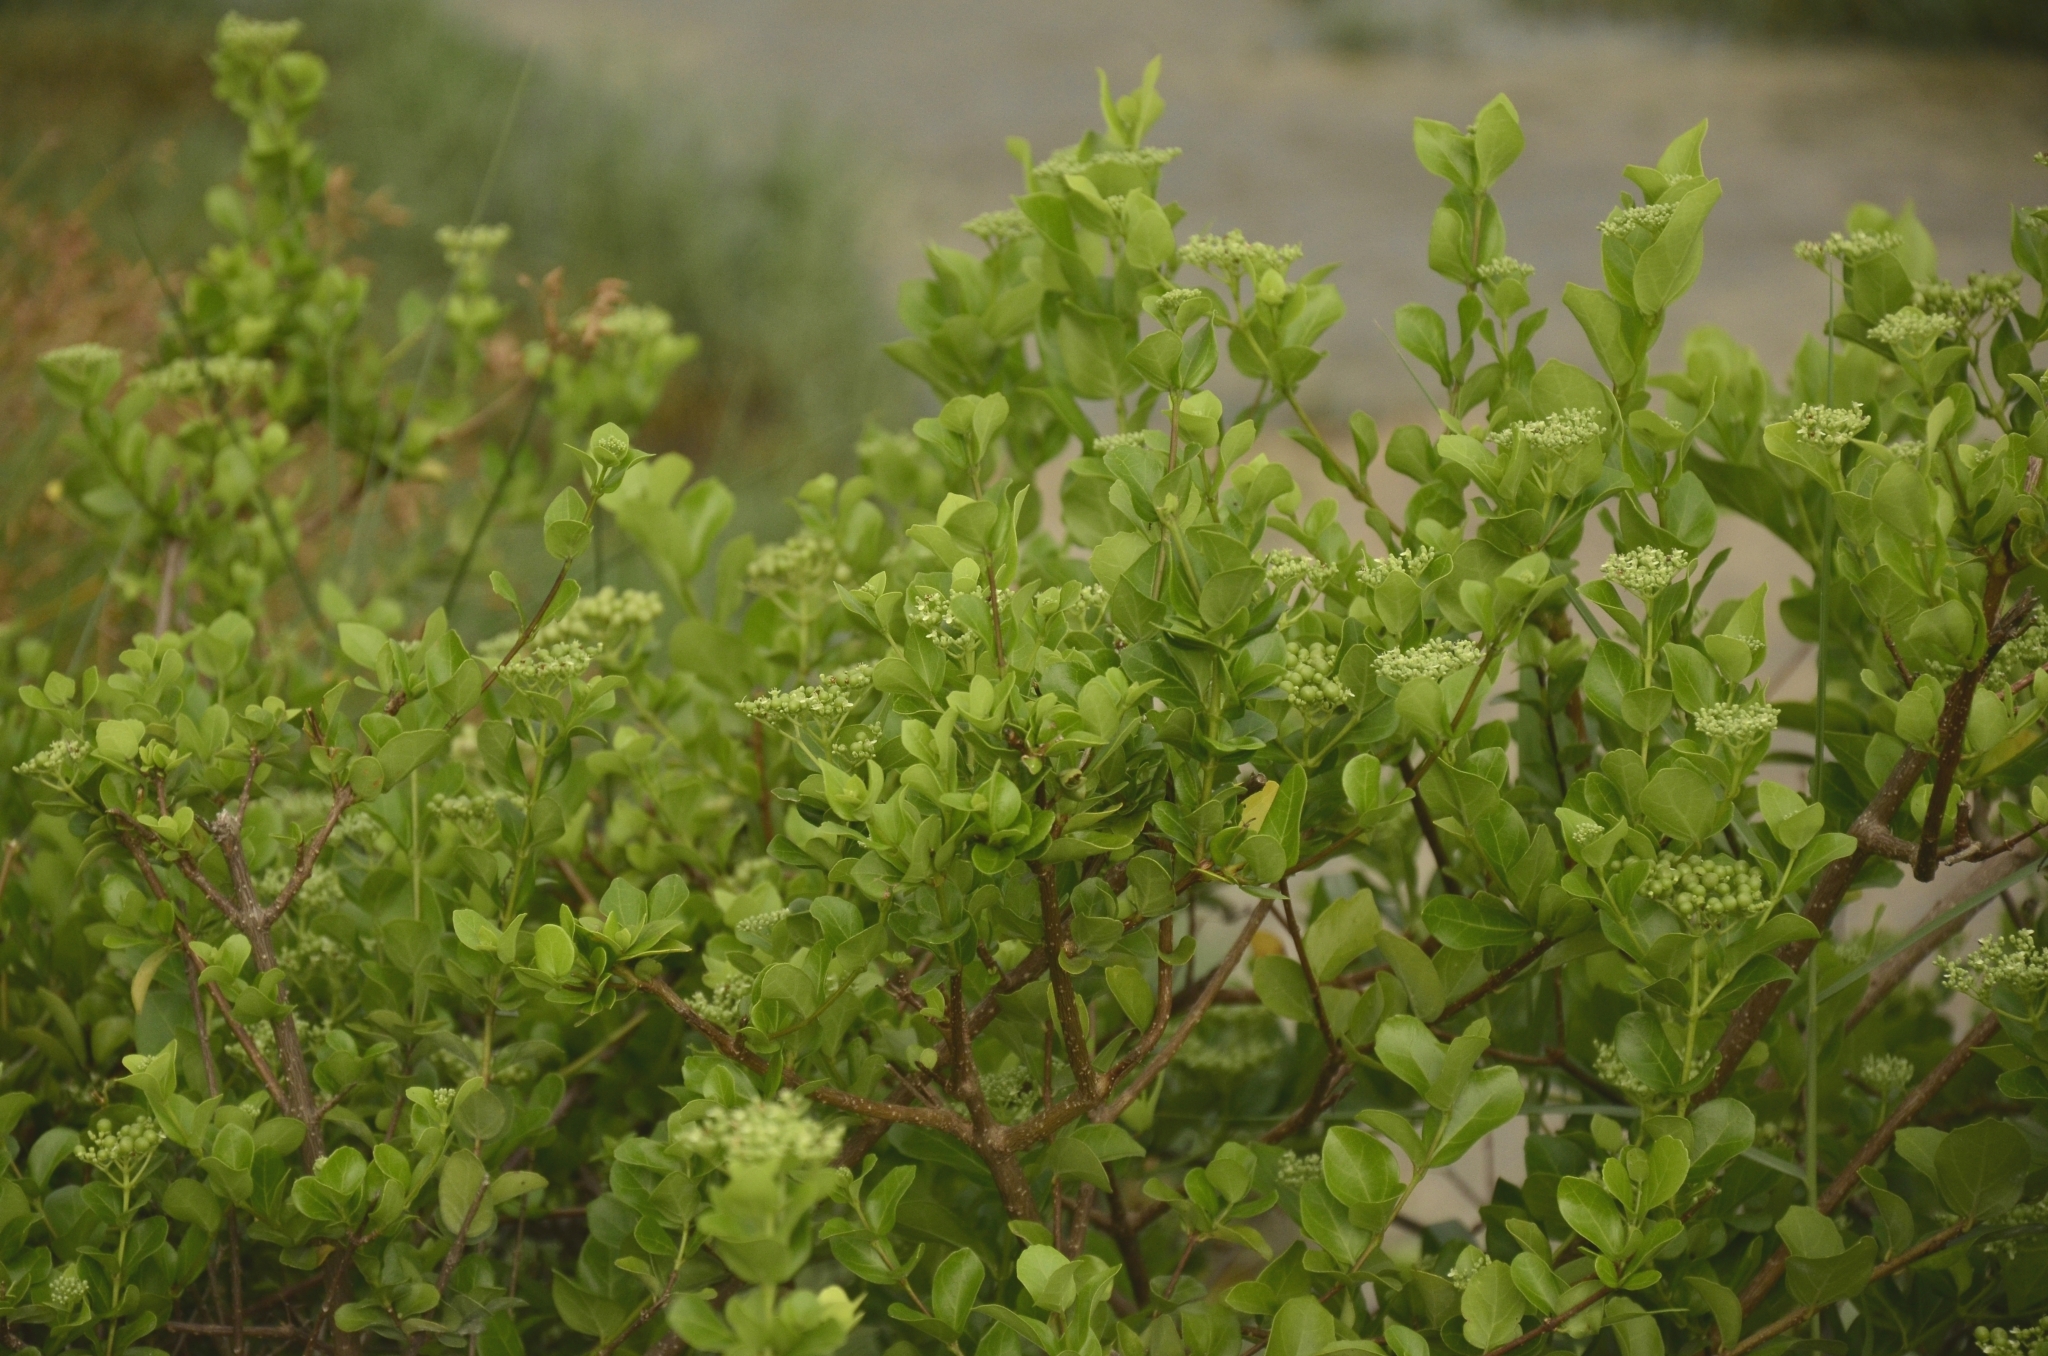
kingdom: Plantae
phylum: Tracheophyta
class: Magnoliopsida
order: Lamiales
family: Lamiaceae
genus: Premna
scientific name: Premna serratifolia
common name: Bastard guelder
